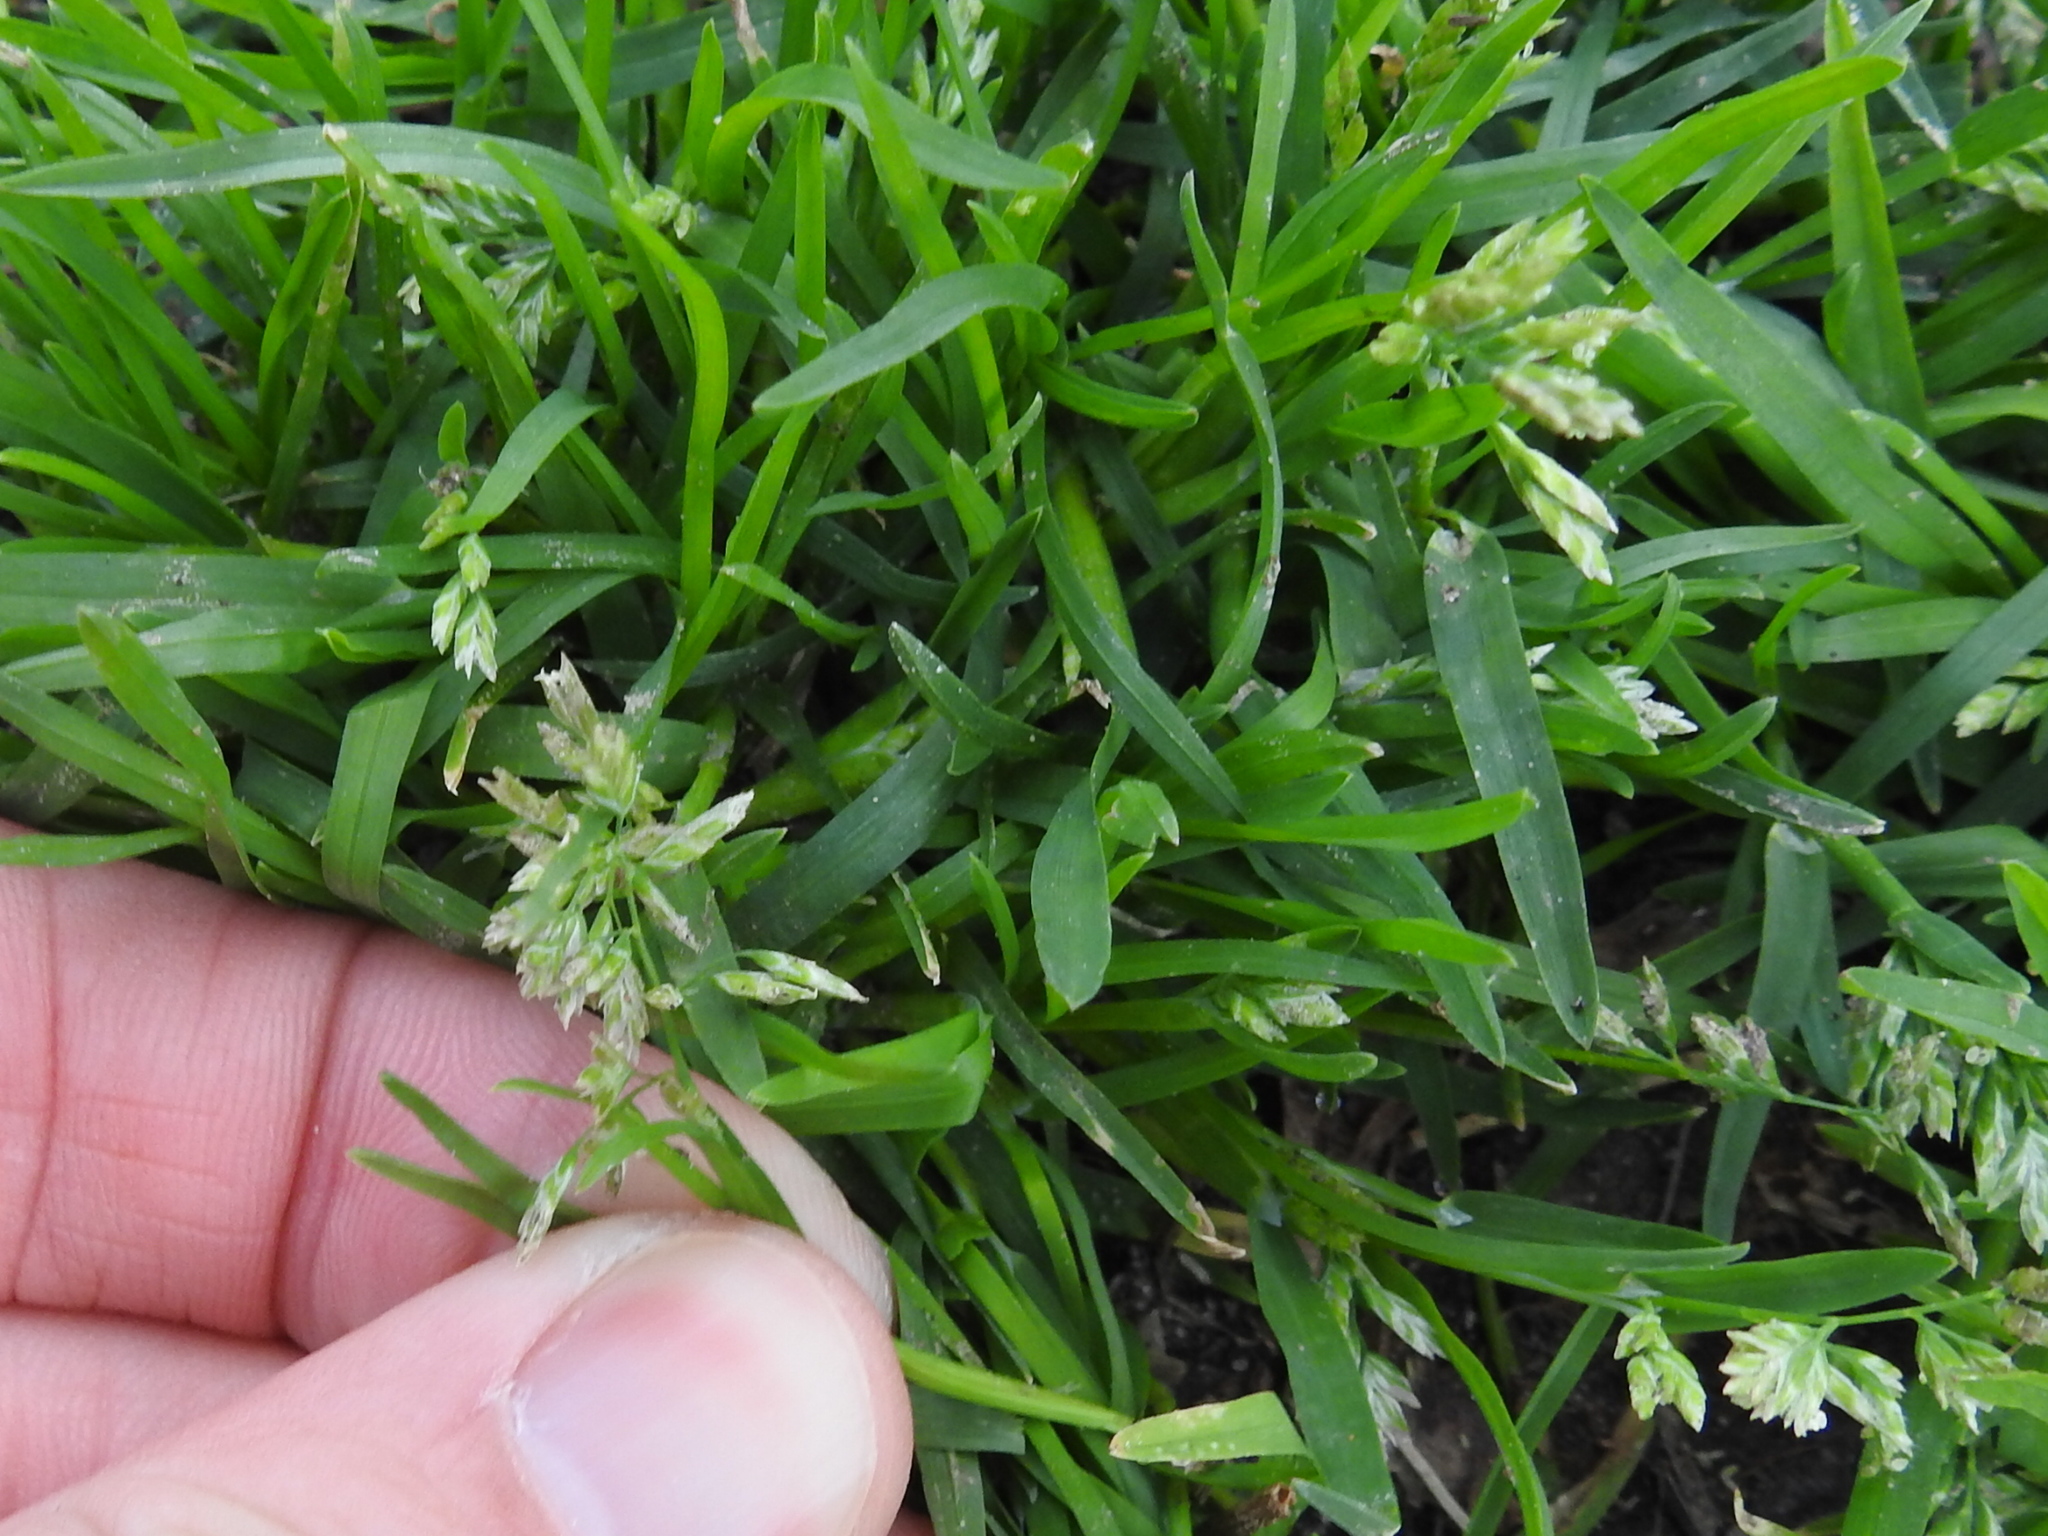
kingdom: Plantae
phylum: Tracheophyta
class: Liliopsida
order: Poales
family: Poaceae
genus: Poa
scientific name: Poa annua
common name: Annual bluegrass
